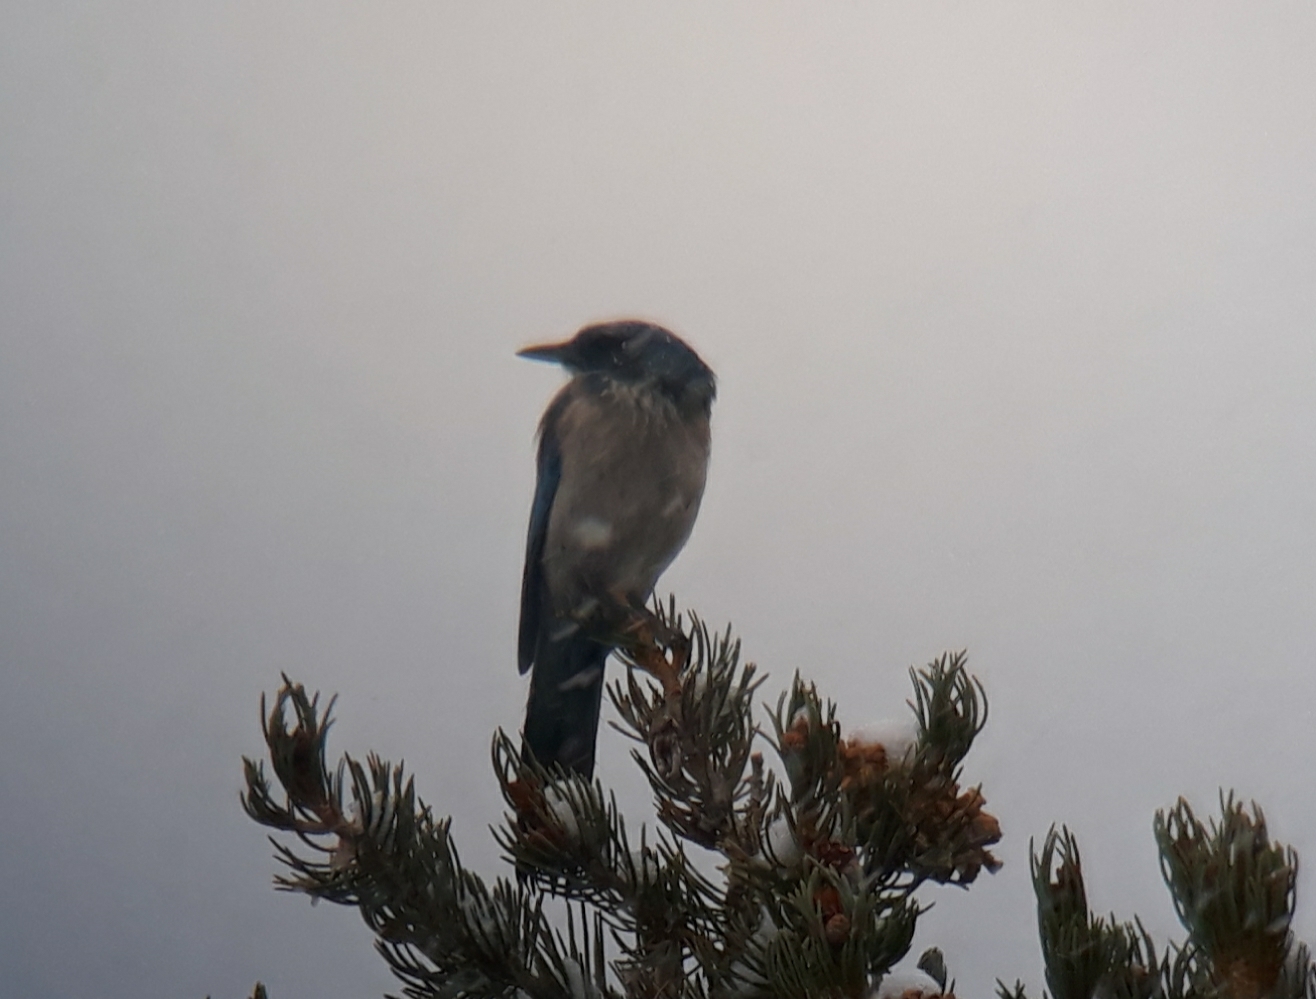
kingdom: Animalia
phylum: Chordata
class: Aves
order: Passeriformes
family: Corvidae
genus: Aphelocoma
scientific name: Aphelocoma woodhouseii
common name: Woodhouse's scrub-jay
